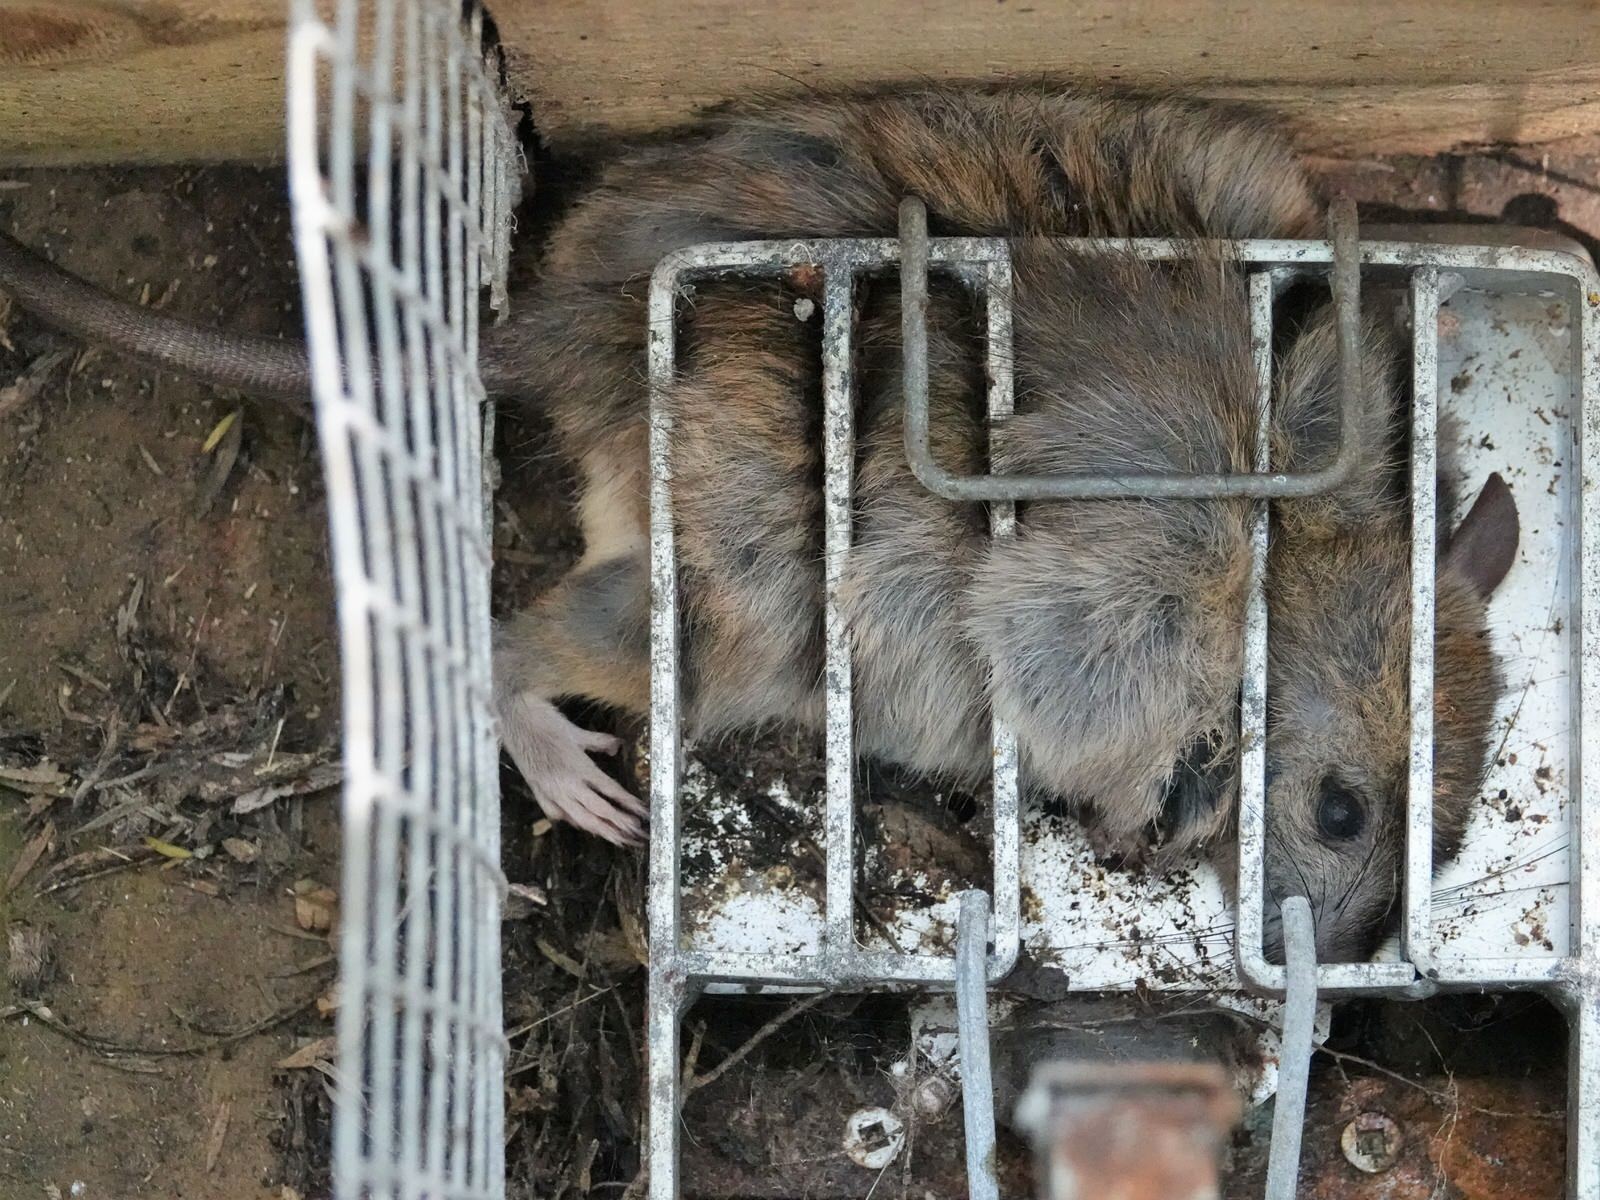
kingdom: Animalia
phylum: Chordata
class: Mammalia
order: Rodentia
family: Muridae
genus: Rattus
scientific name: Rattus rattus
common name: Black rat
